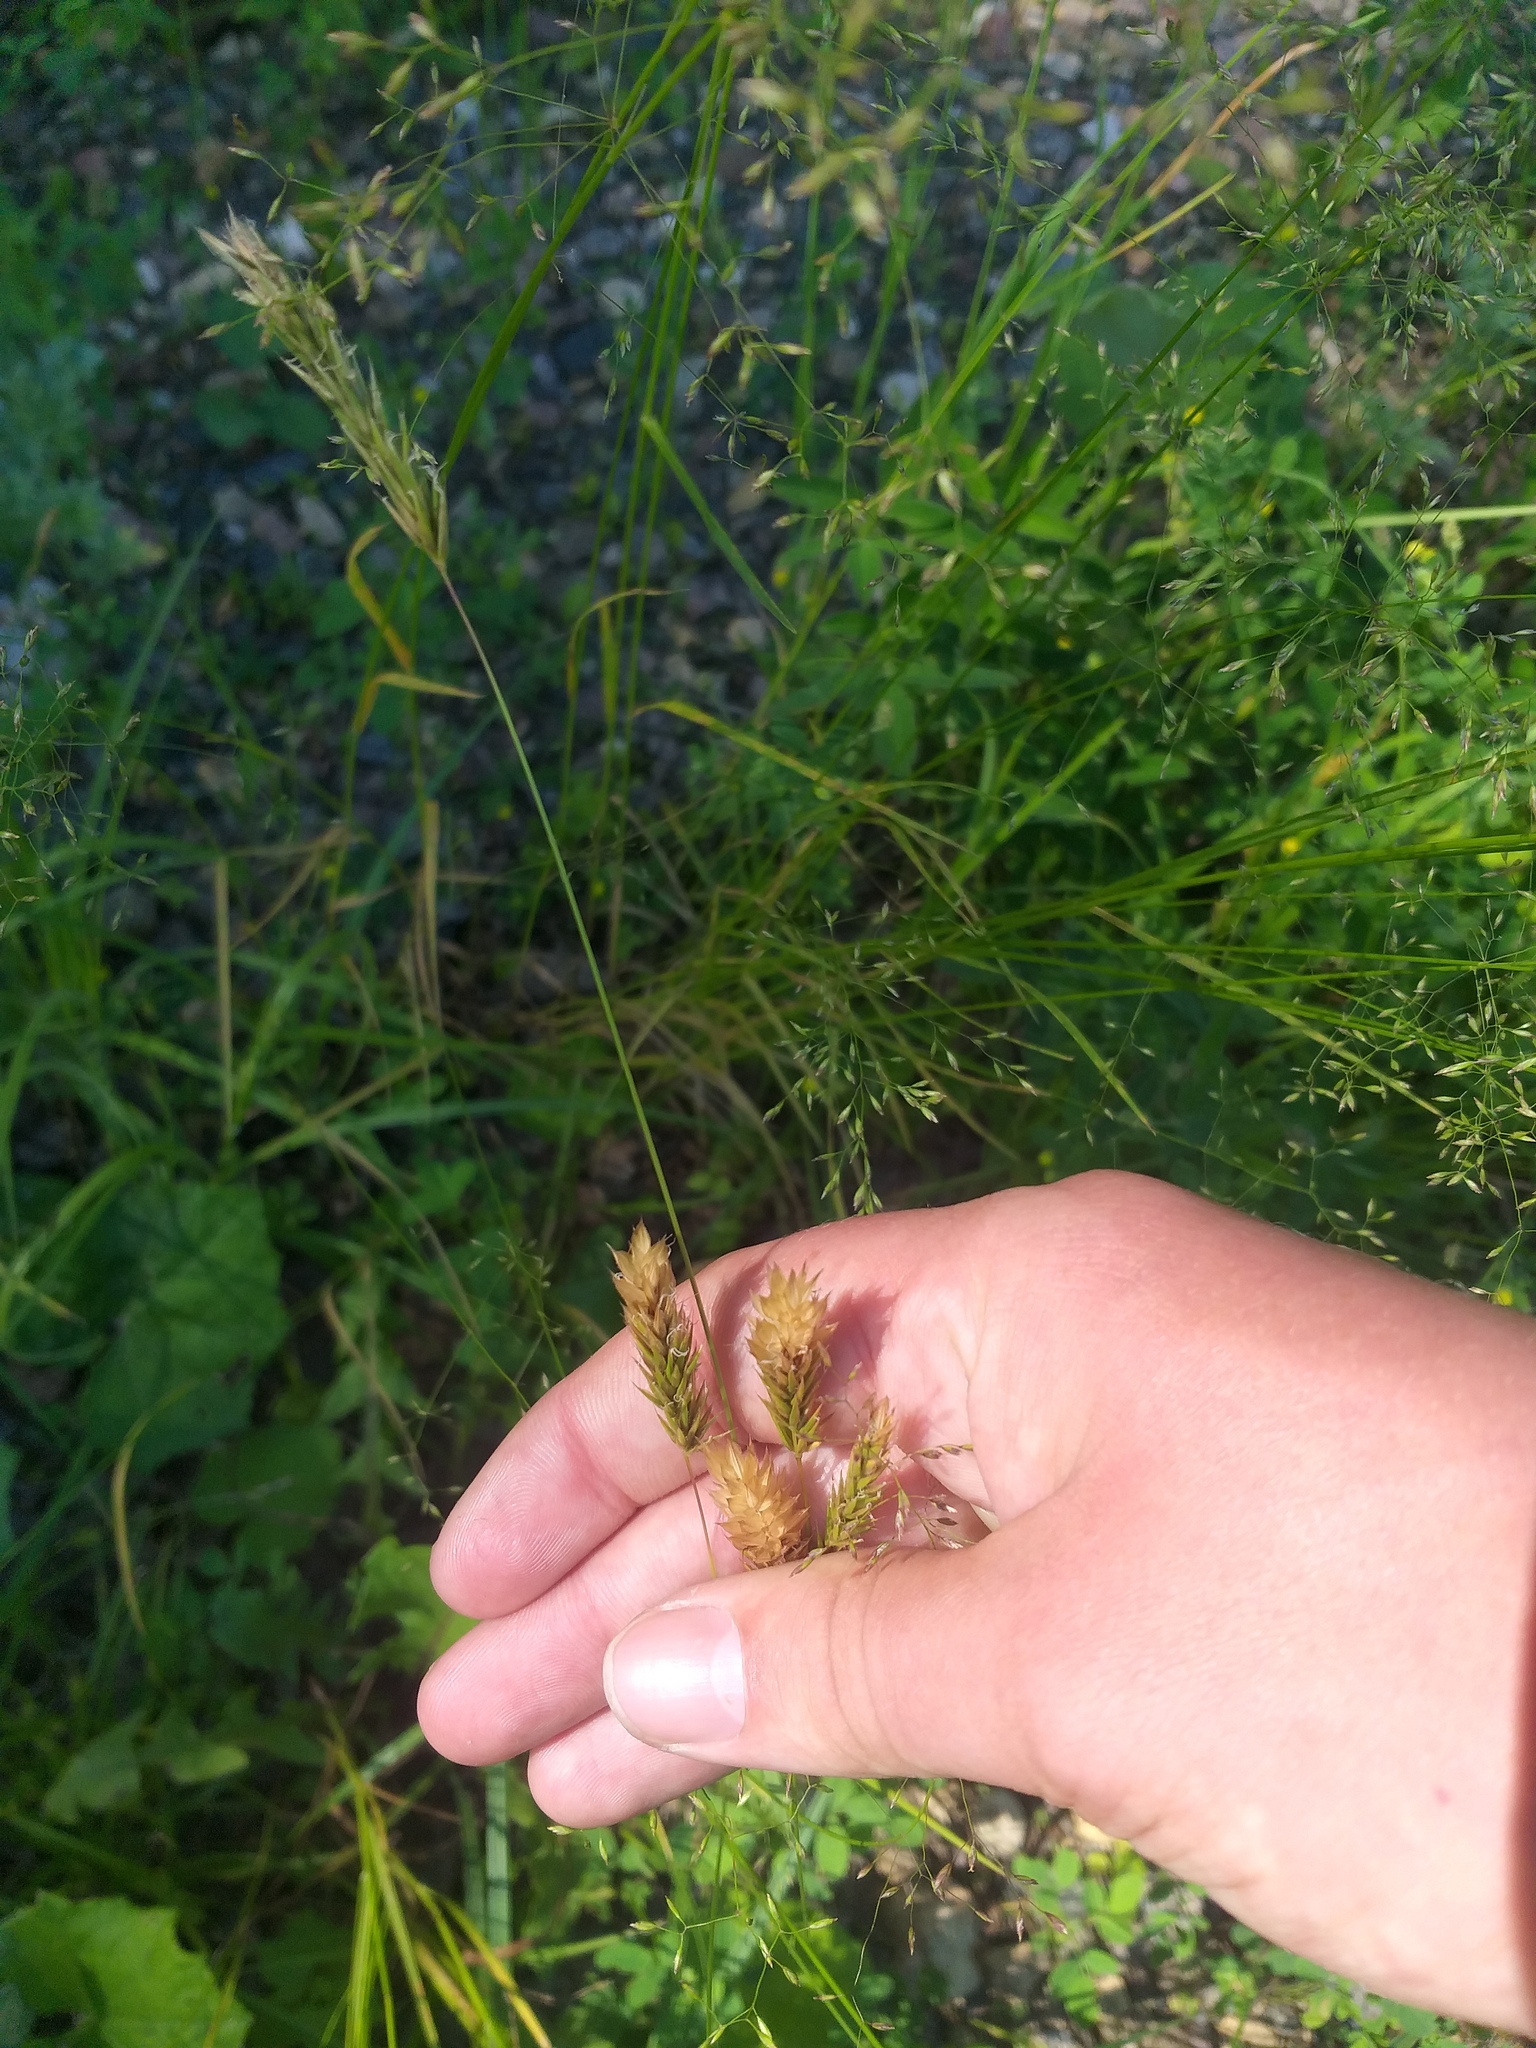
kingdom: Plantae
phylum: Tracheophyta
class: Liliopsida
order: Poales
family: Poaceae
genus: Anthoxanthum
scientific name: Anthoxanthum odoratum
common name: Sweet vernalgrass
